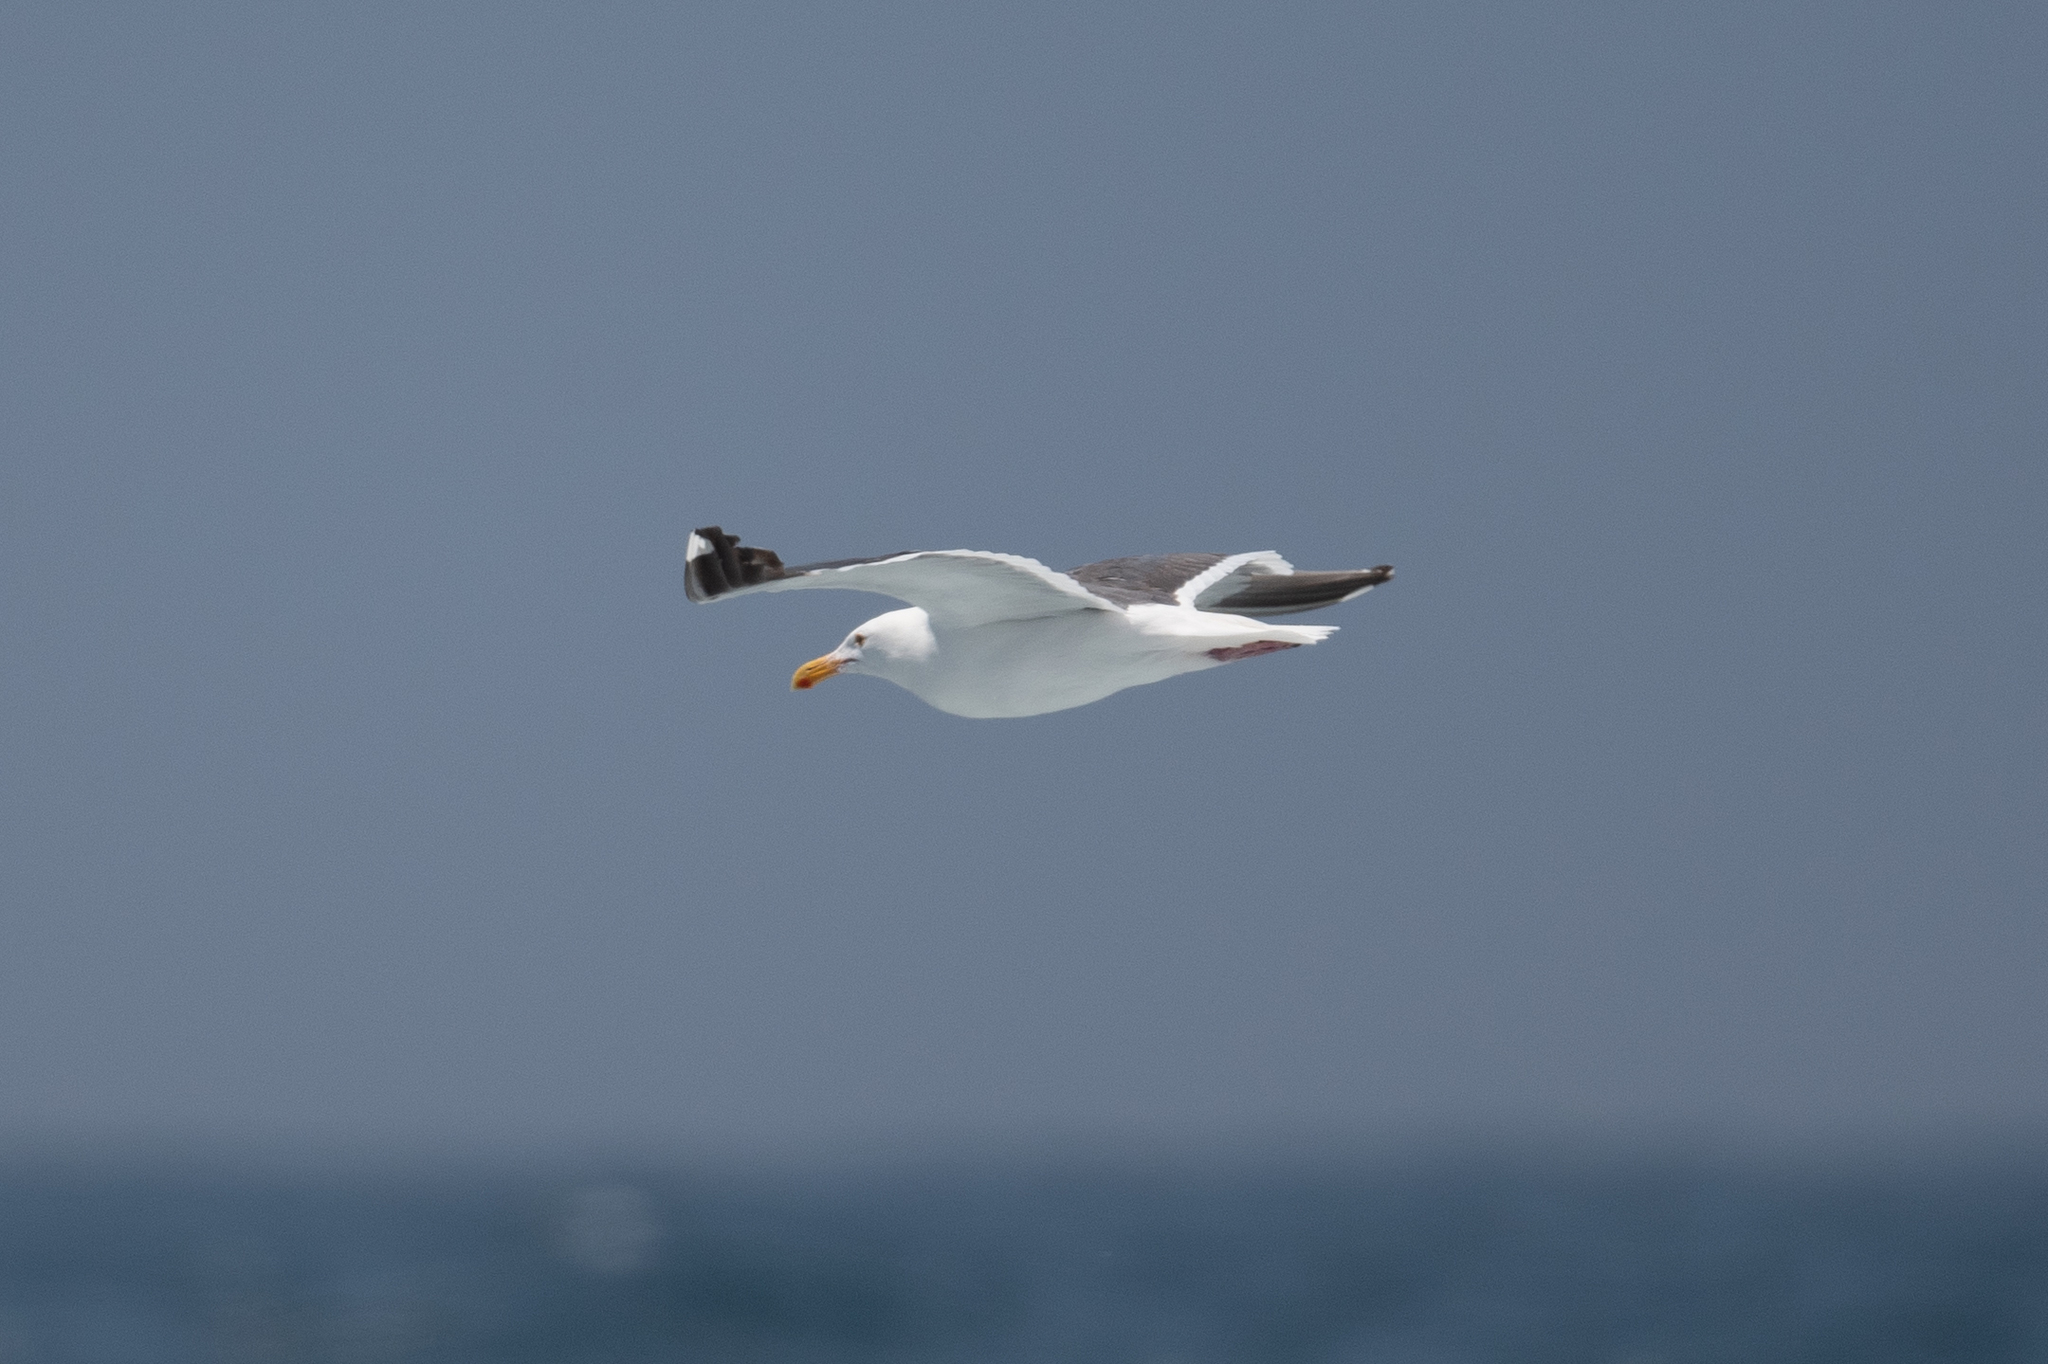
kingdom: Animalia
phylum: Chordata
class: Aves
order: Charadriiformes
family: Laridae
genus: Larus
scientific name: Larus occidentalis
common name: Western gull
